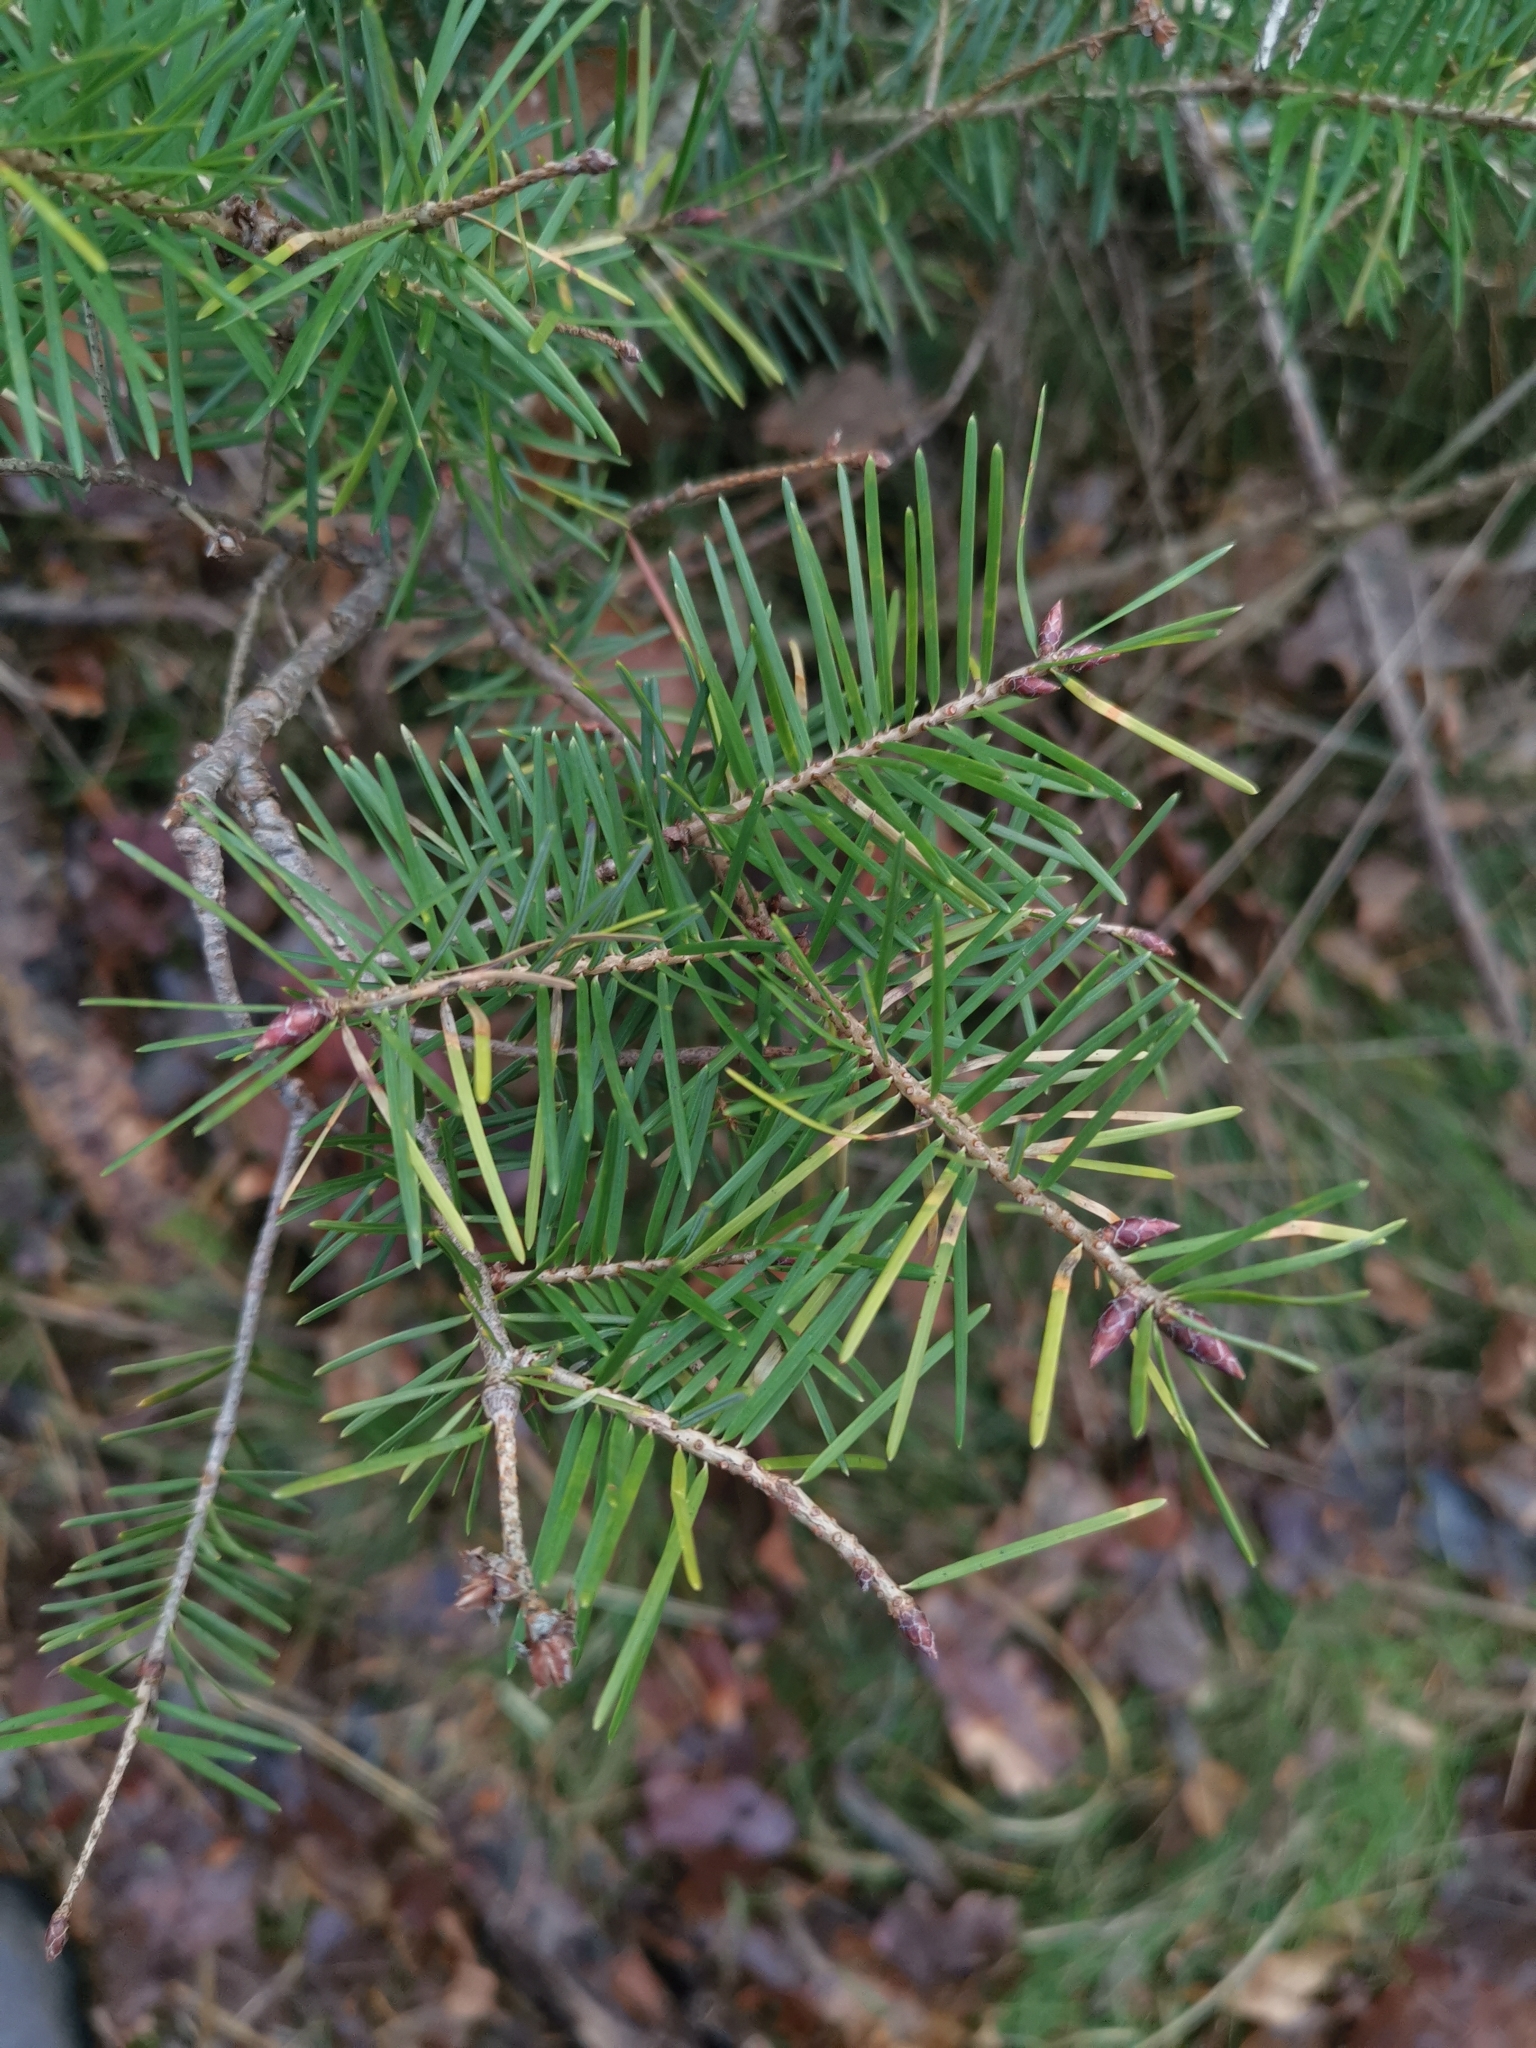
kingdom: Plantae
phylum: Tracheophyta
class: Pinopsida
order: Pinales
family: Pinaceae
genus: Pseudotsuga
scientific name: Pseudotsuga menziesii
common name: Douglas fir
